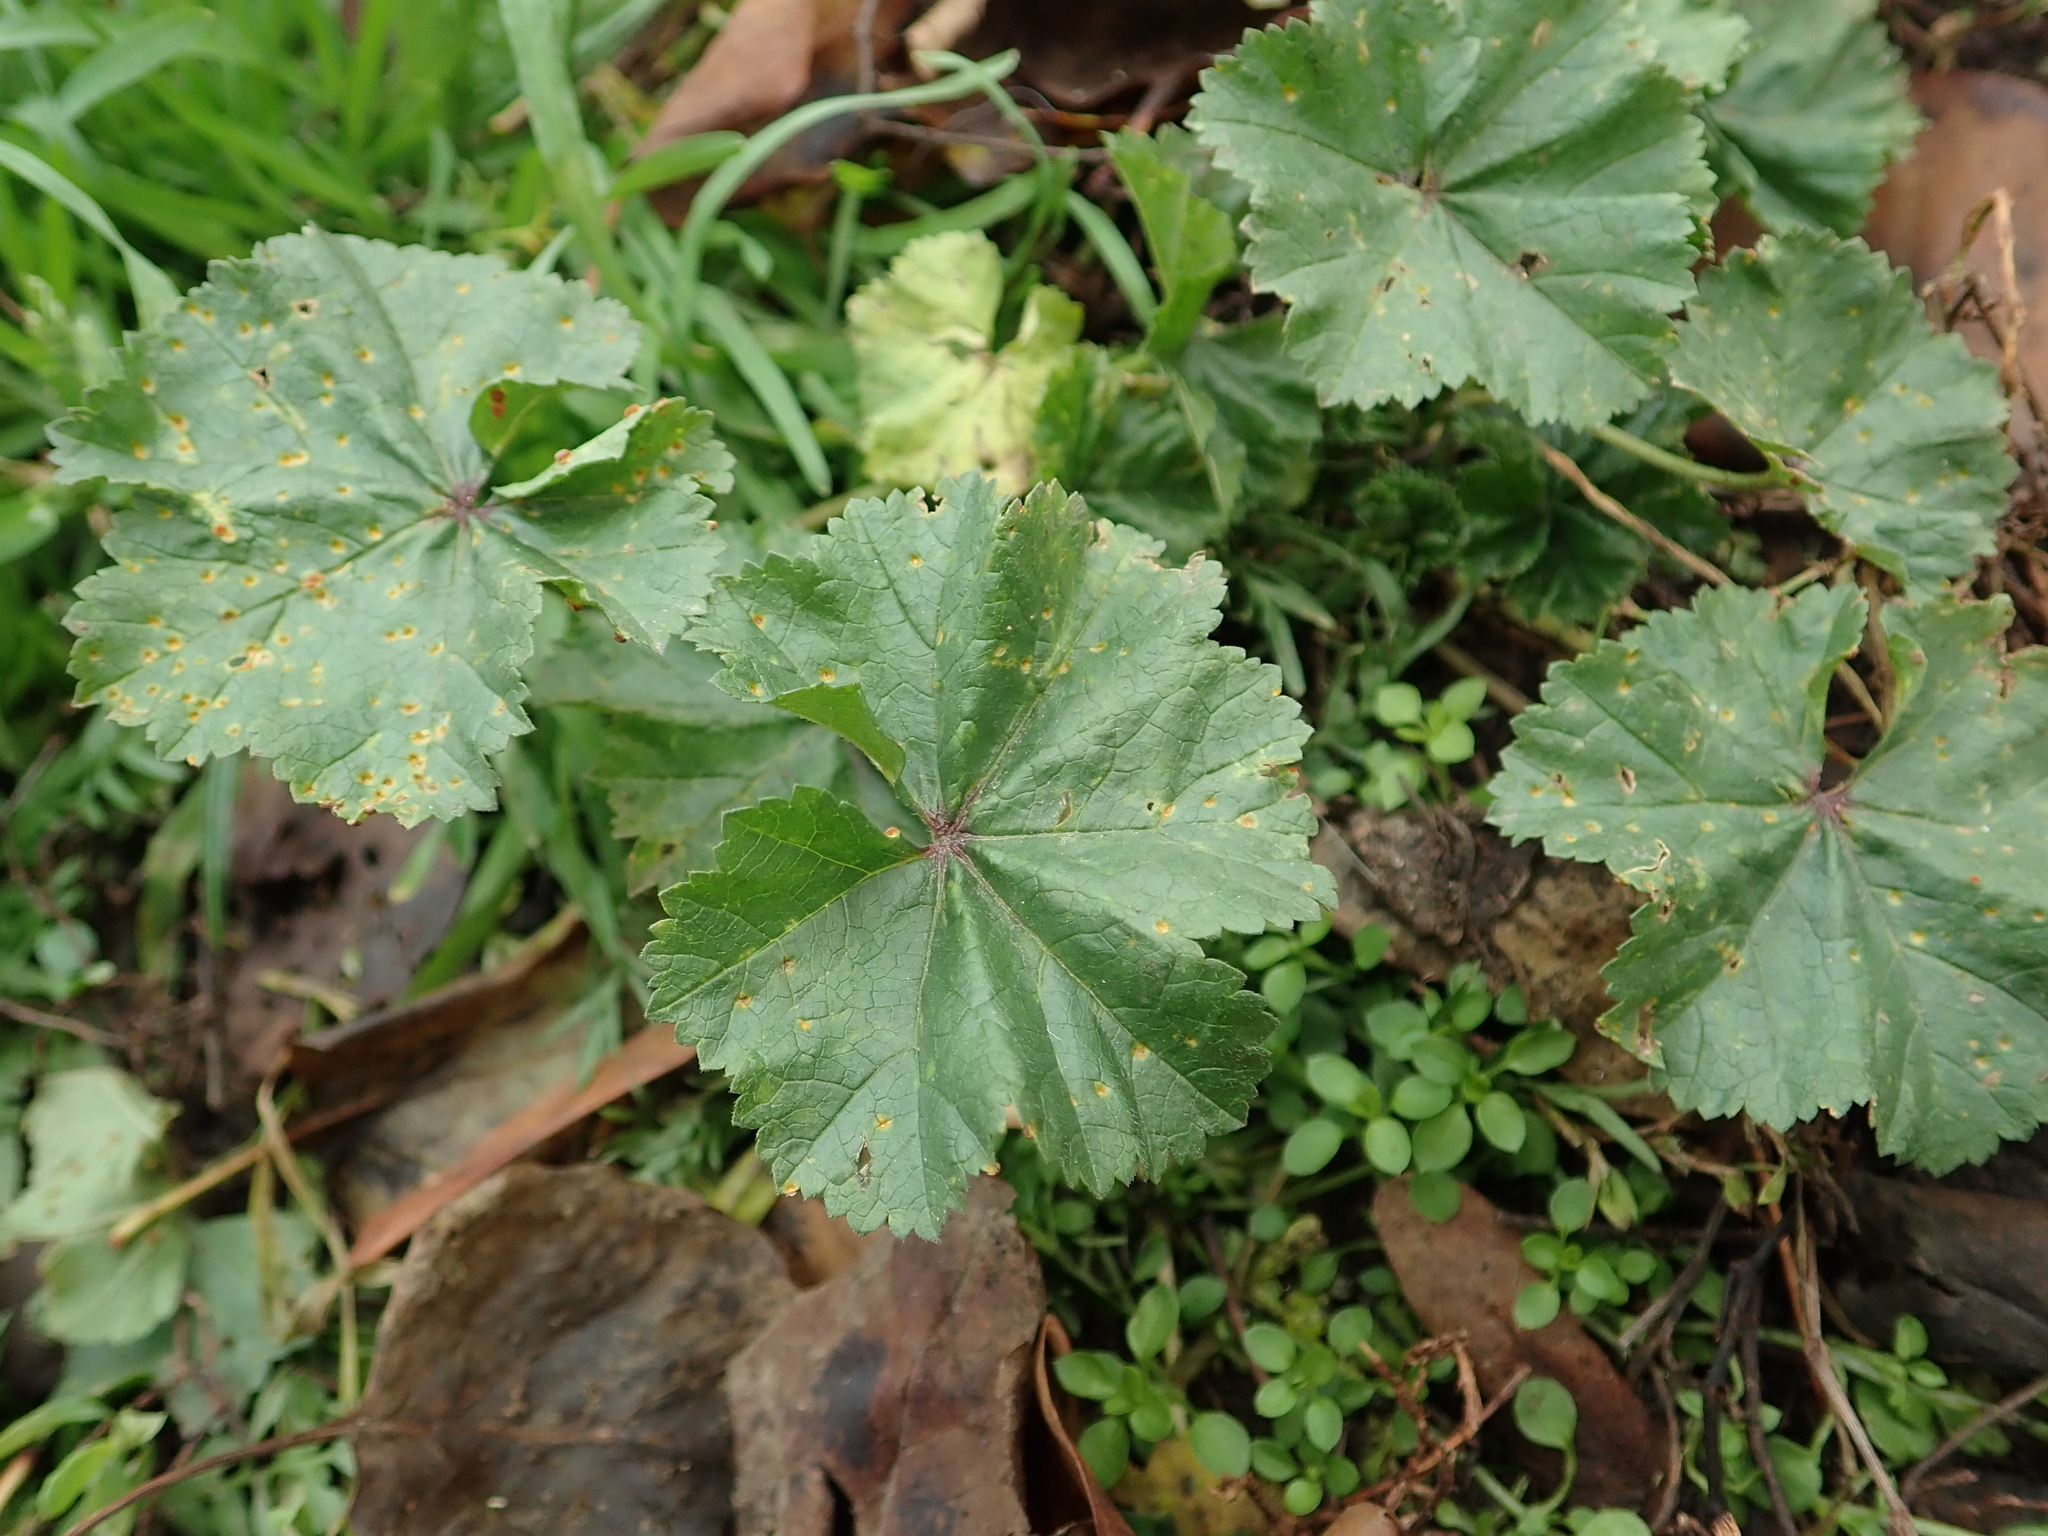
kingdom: Plantae
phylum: Tracheophyta
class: Magnoliopsida
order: Malvales
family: Malvaceae
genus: Malva
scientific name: Malva neglecta
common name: Common mallow
